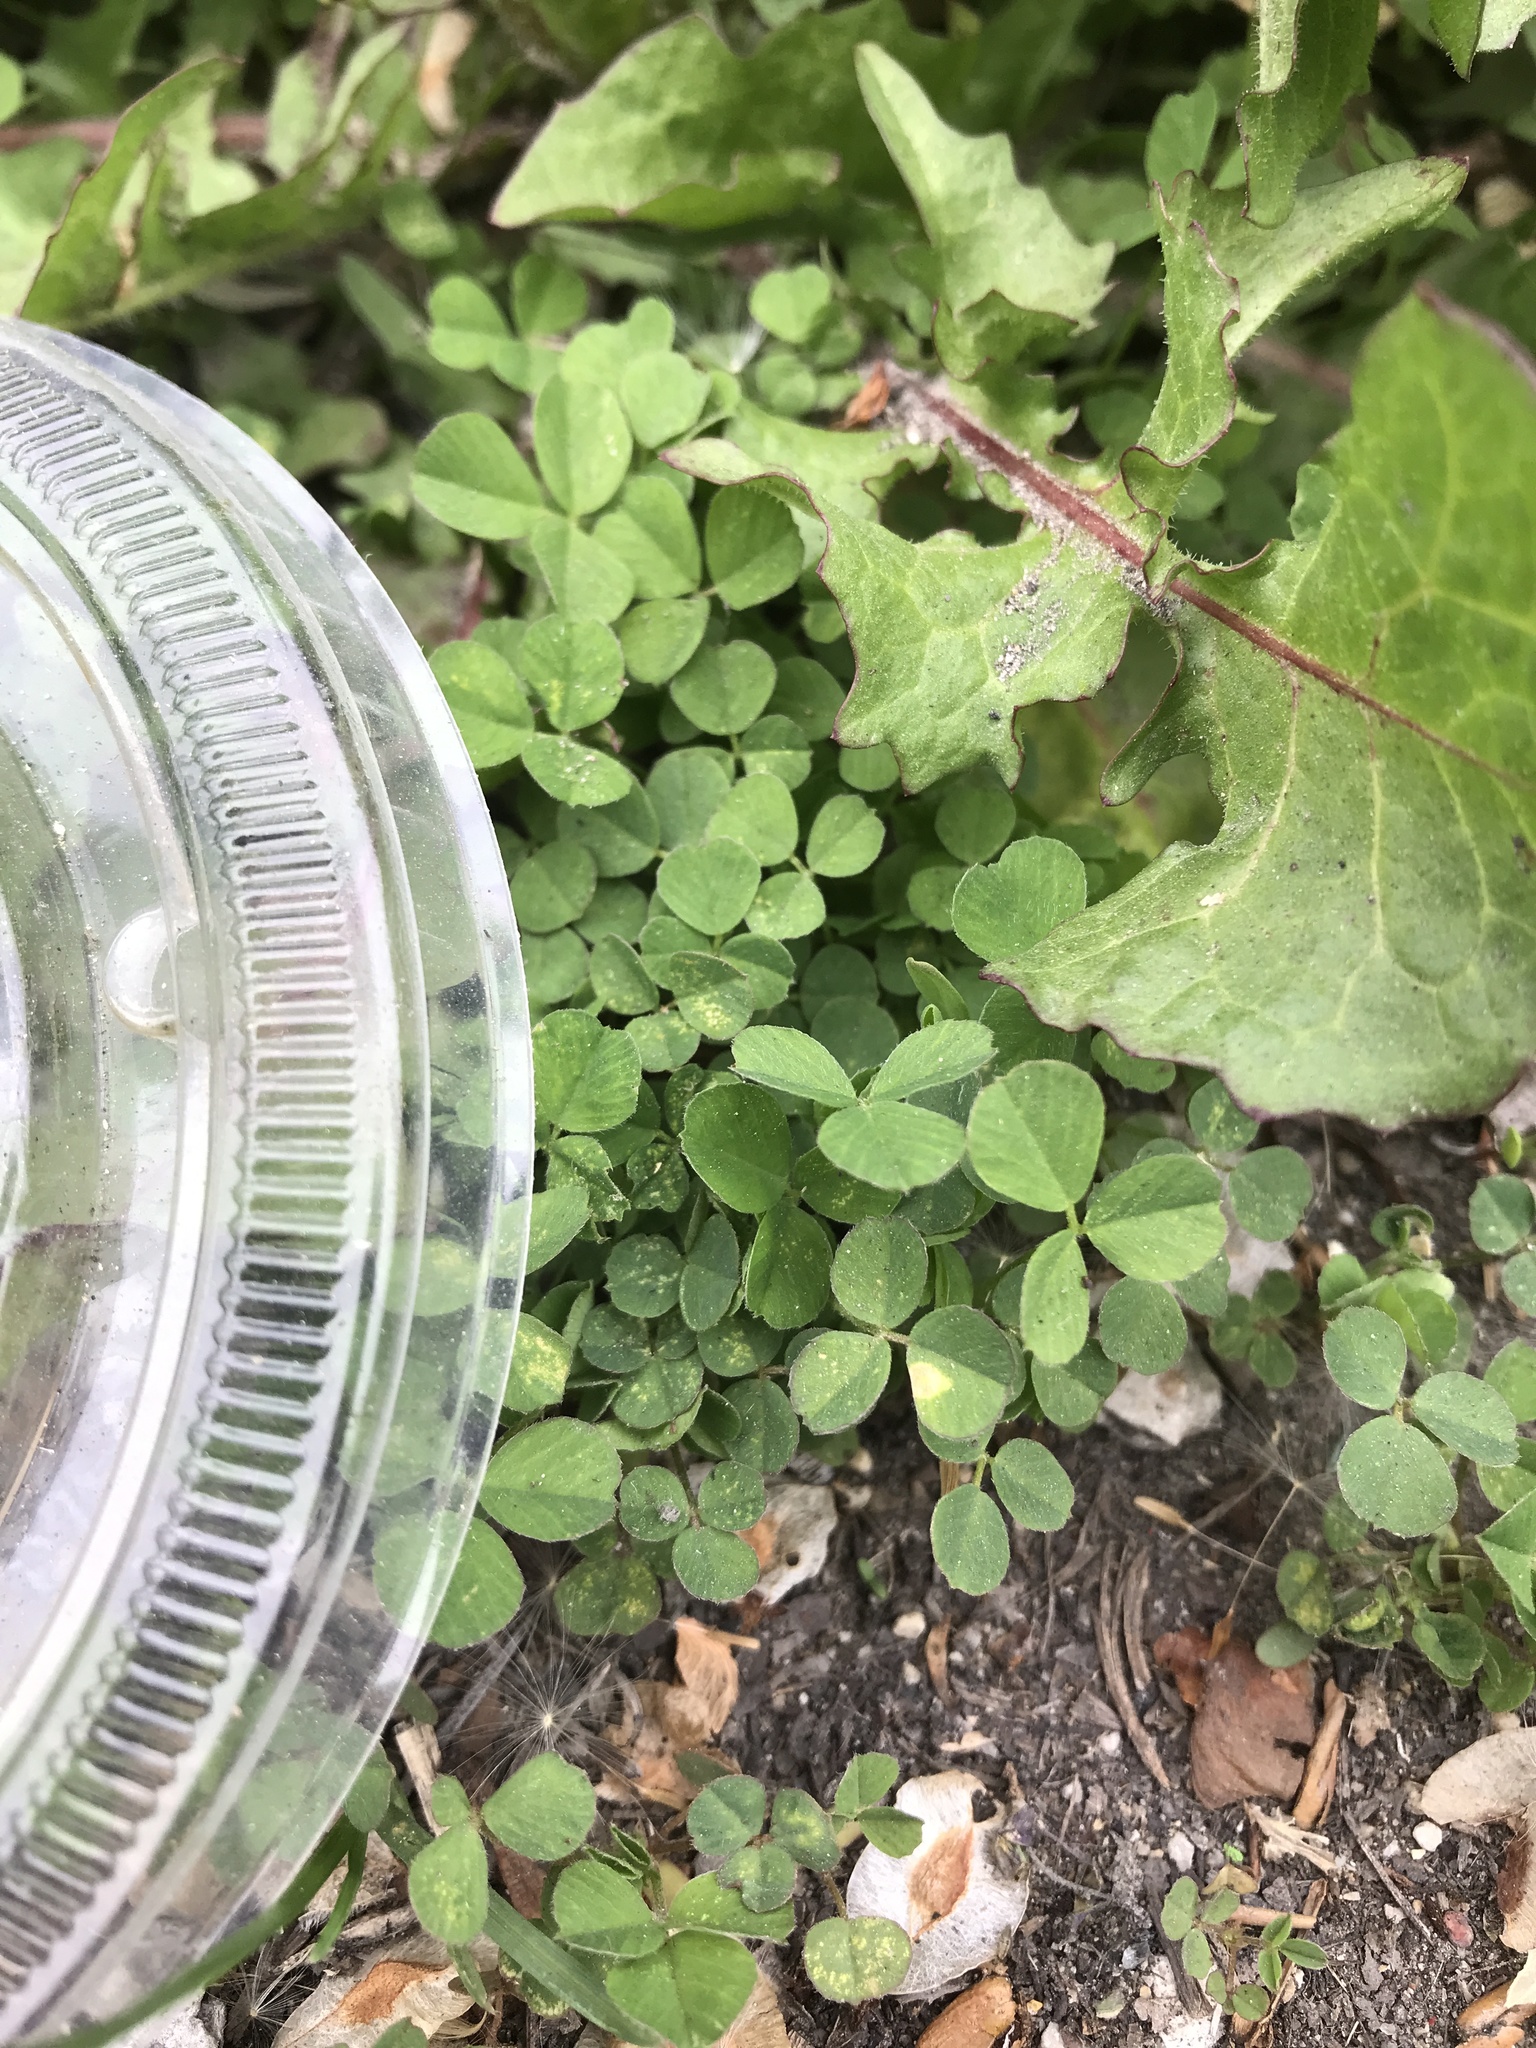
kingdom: Plantae
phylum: Tracheophyta
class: Magnoliopsida
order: Fabales
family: Fabaceae
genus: Trifolium
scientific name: Trifolium repens
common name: White clover
